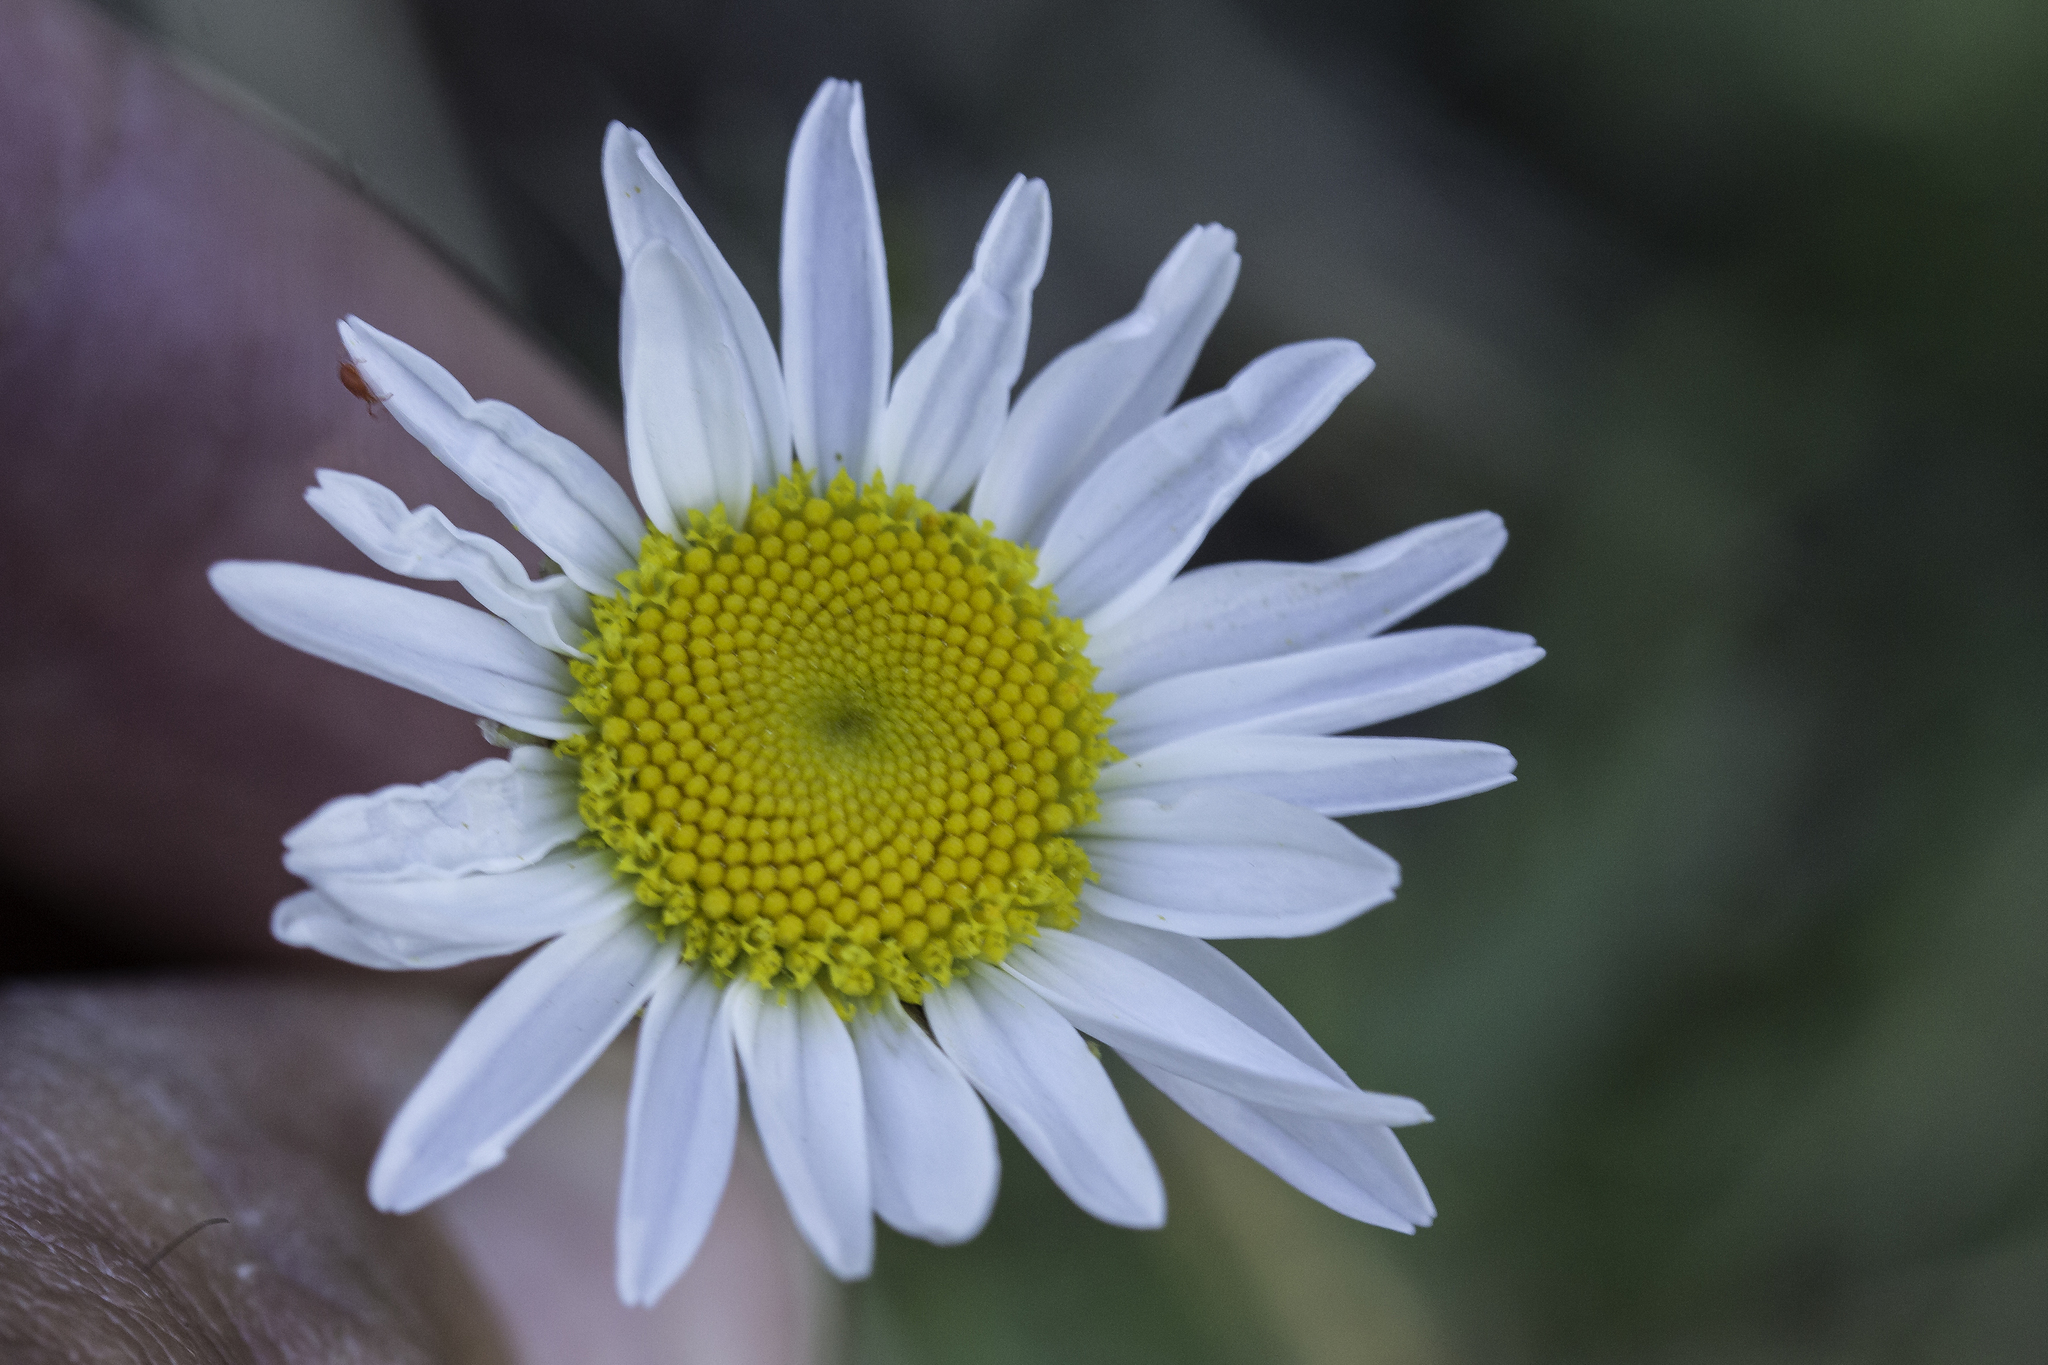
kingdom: Plantae
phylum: Tracheophyta
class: Magnoliopsida
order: Asterales
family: Asteraceae
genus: Leucanthemum
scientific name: Leucanthemum vulgare
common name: Oxeye daisy
